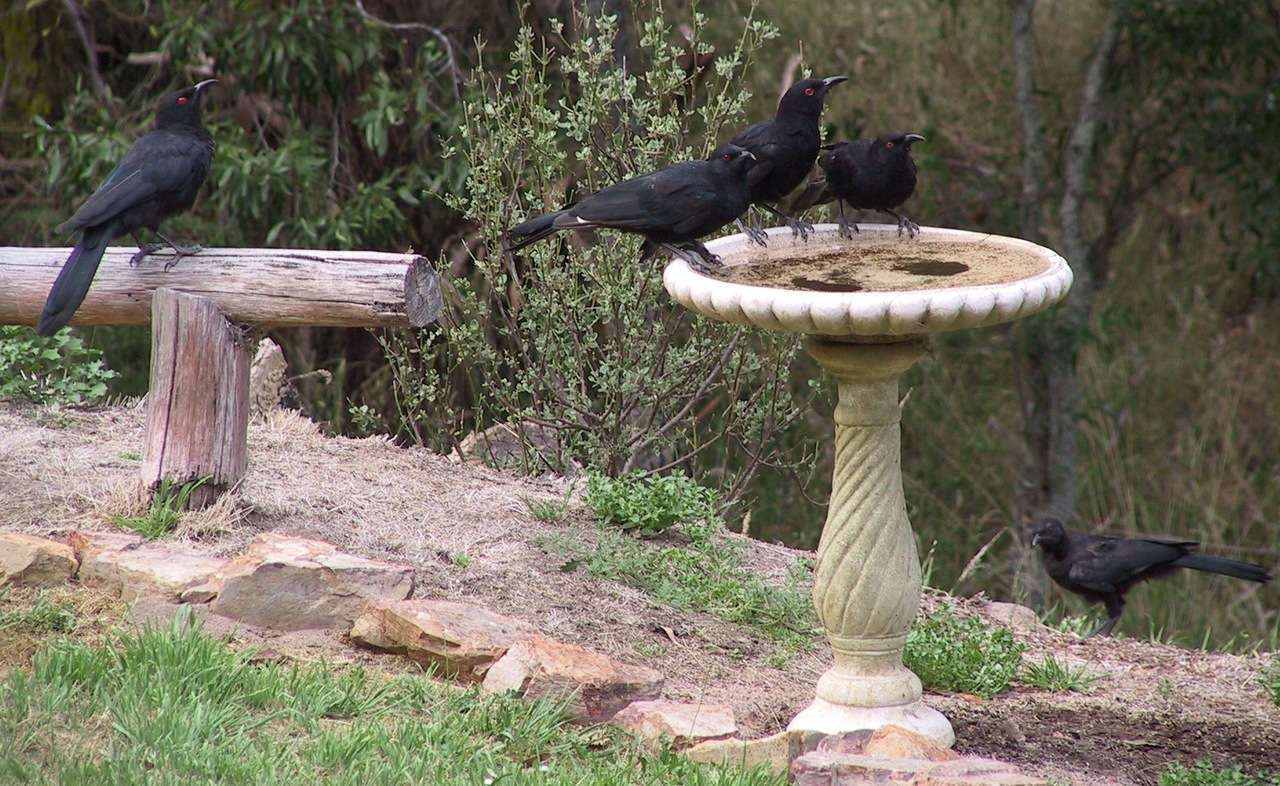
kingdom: Animalia
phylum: Chordata
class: Aves
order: Passeriformes
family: Corcoracidae
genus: Corcorax
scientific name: Corcorax melanoramphos
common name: White-winged chough
